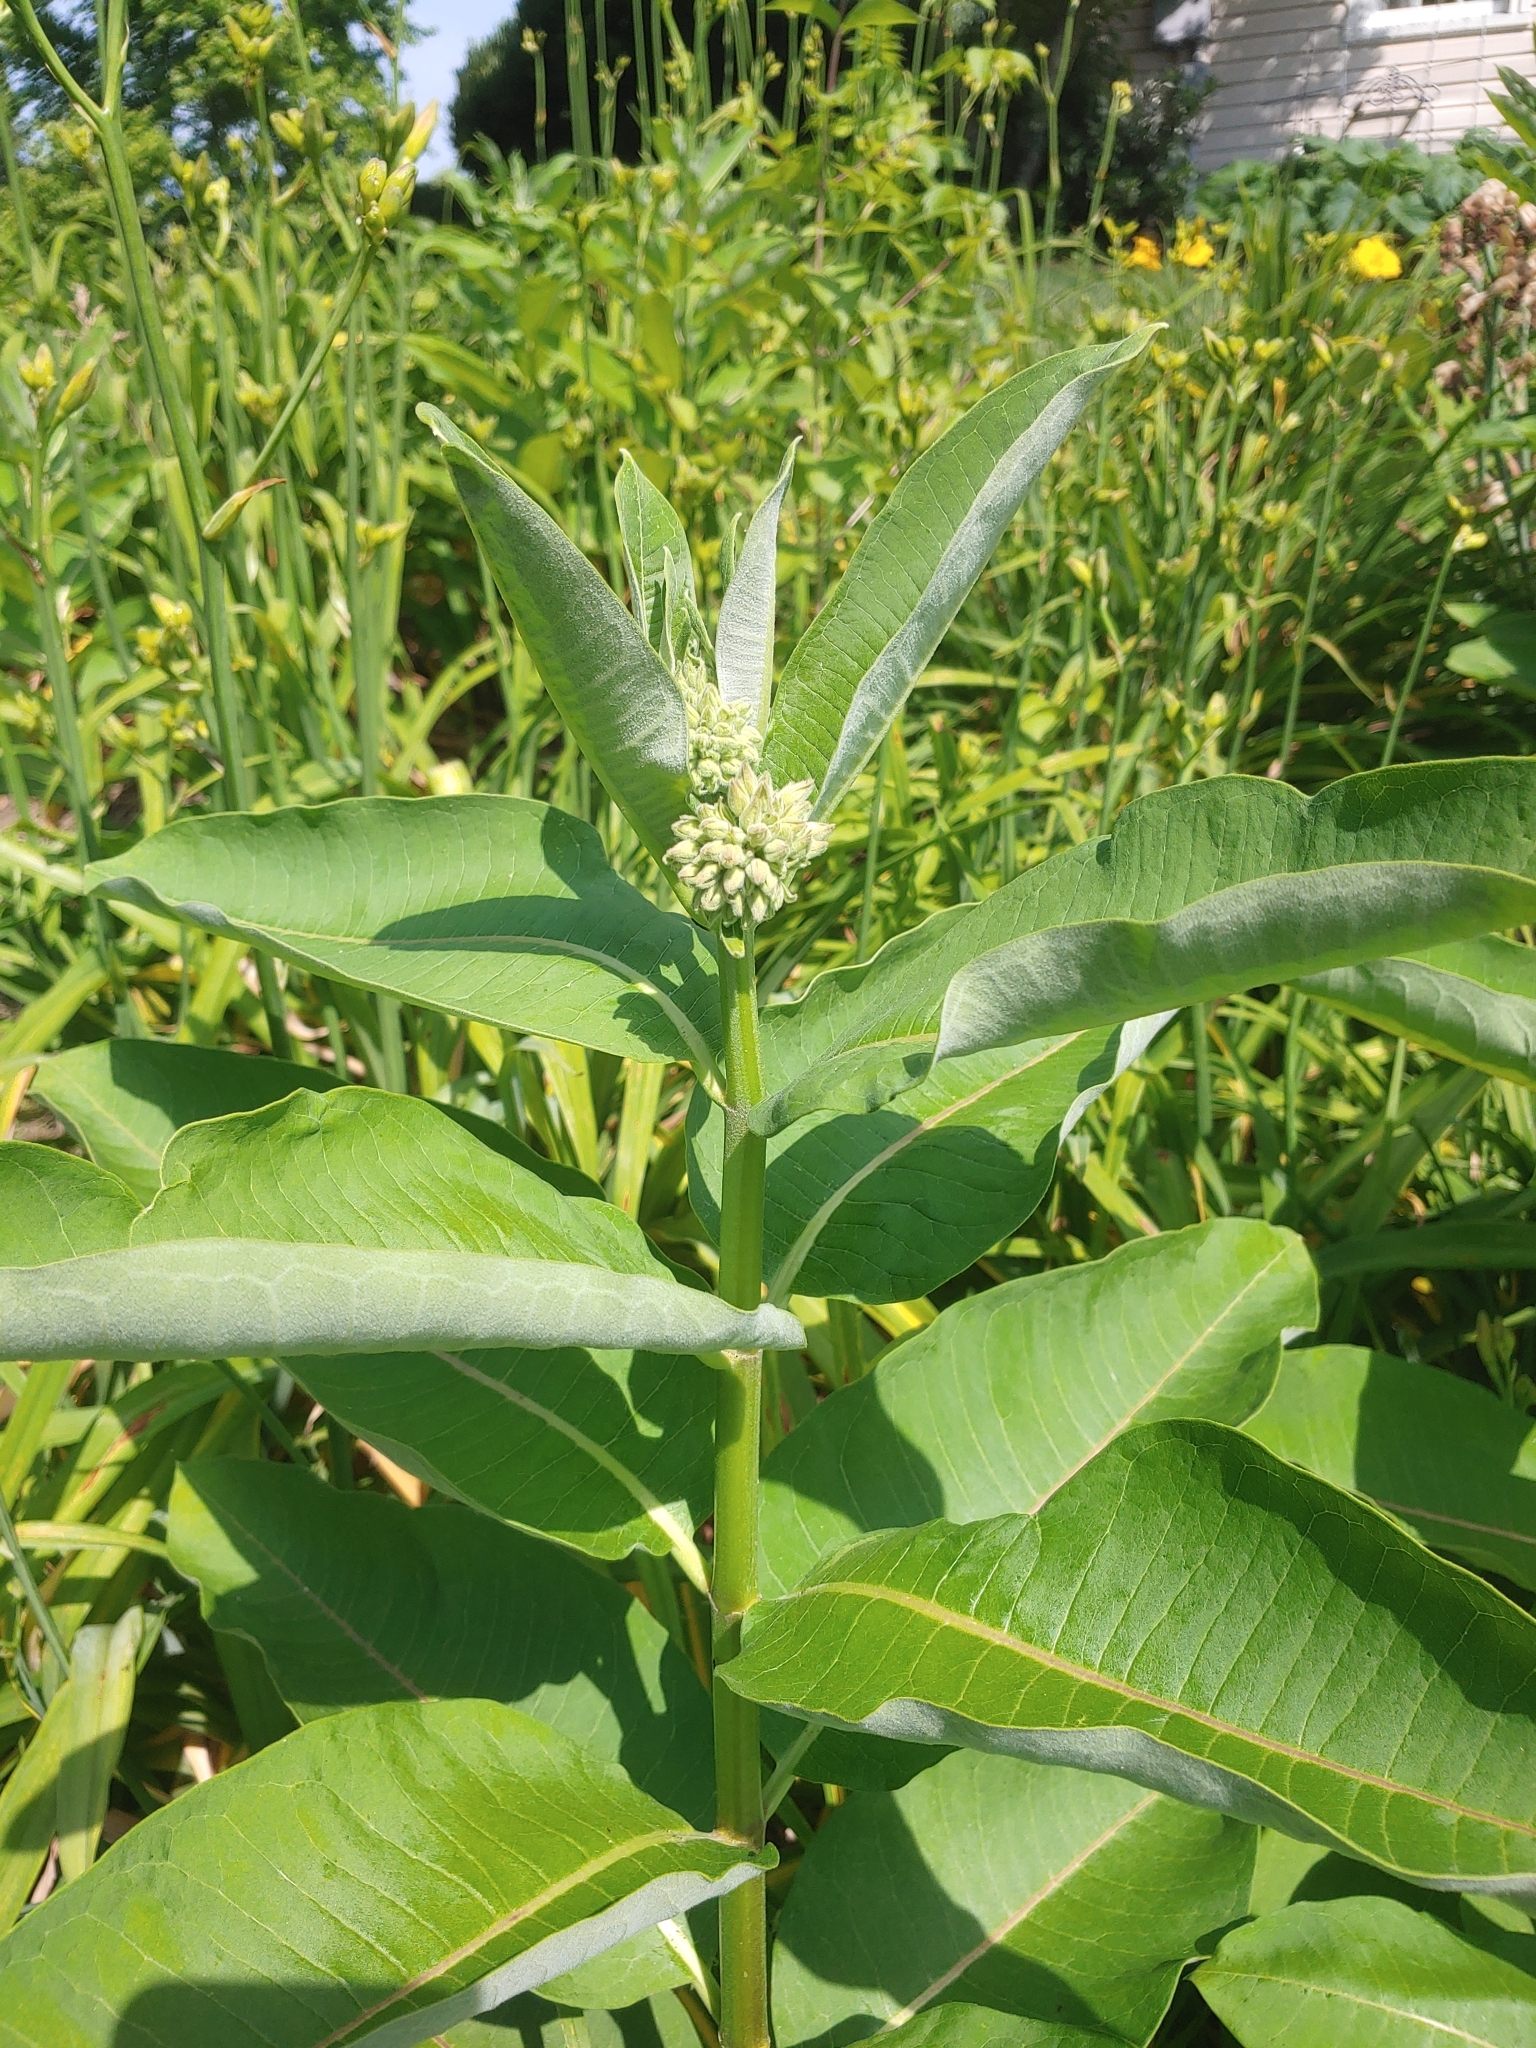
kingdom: Plantae
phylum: Tracheophyta
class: Magnoliopsida
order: Gentianales
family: Apocynaceae
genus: Asclepias
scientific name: Asclepias syriaca
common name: Common milkweed
